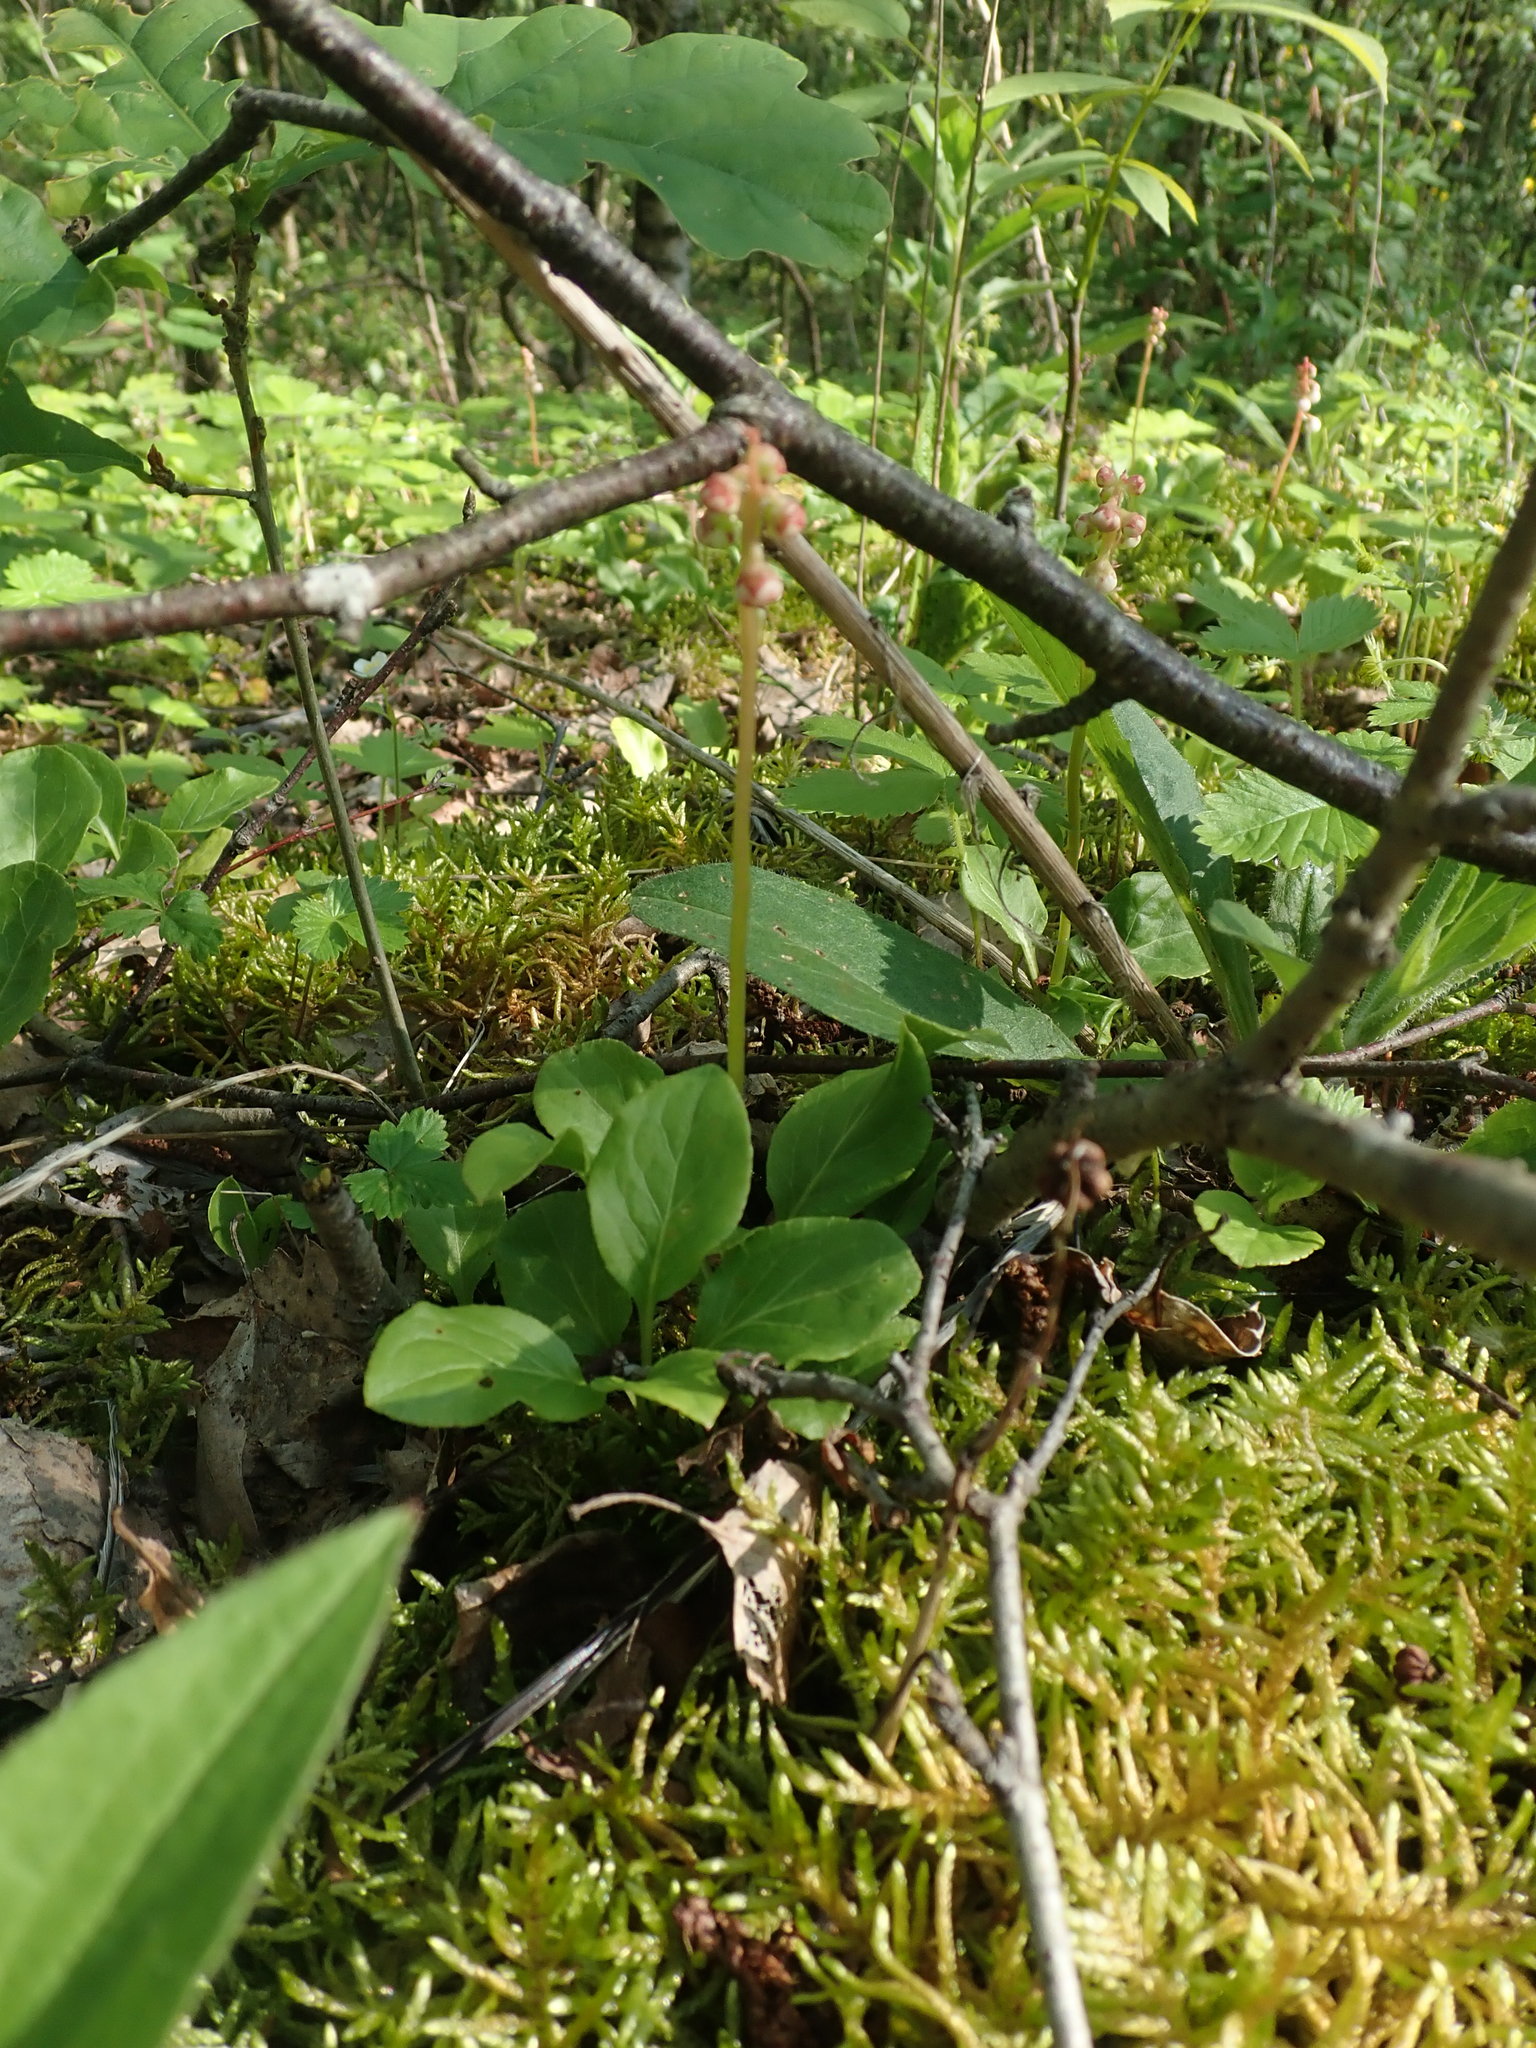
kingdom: Plantae
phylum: Tracheophyta
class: Magnoliopsida
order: Ericales
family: Ericaceae
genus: Pyrola
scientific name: Pyrola minor
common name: Common wintergreen
